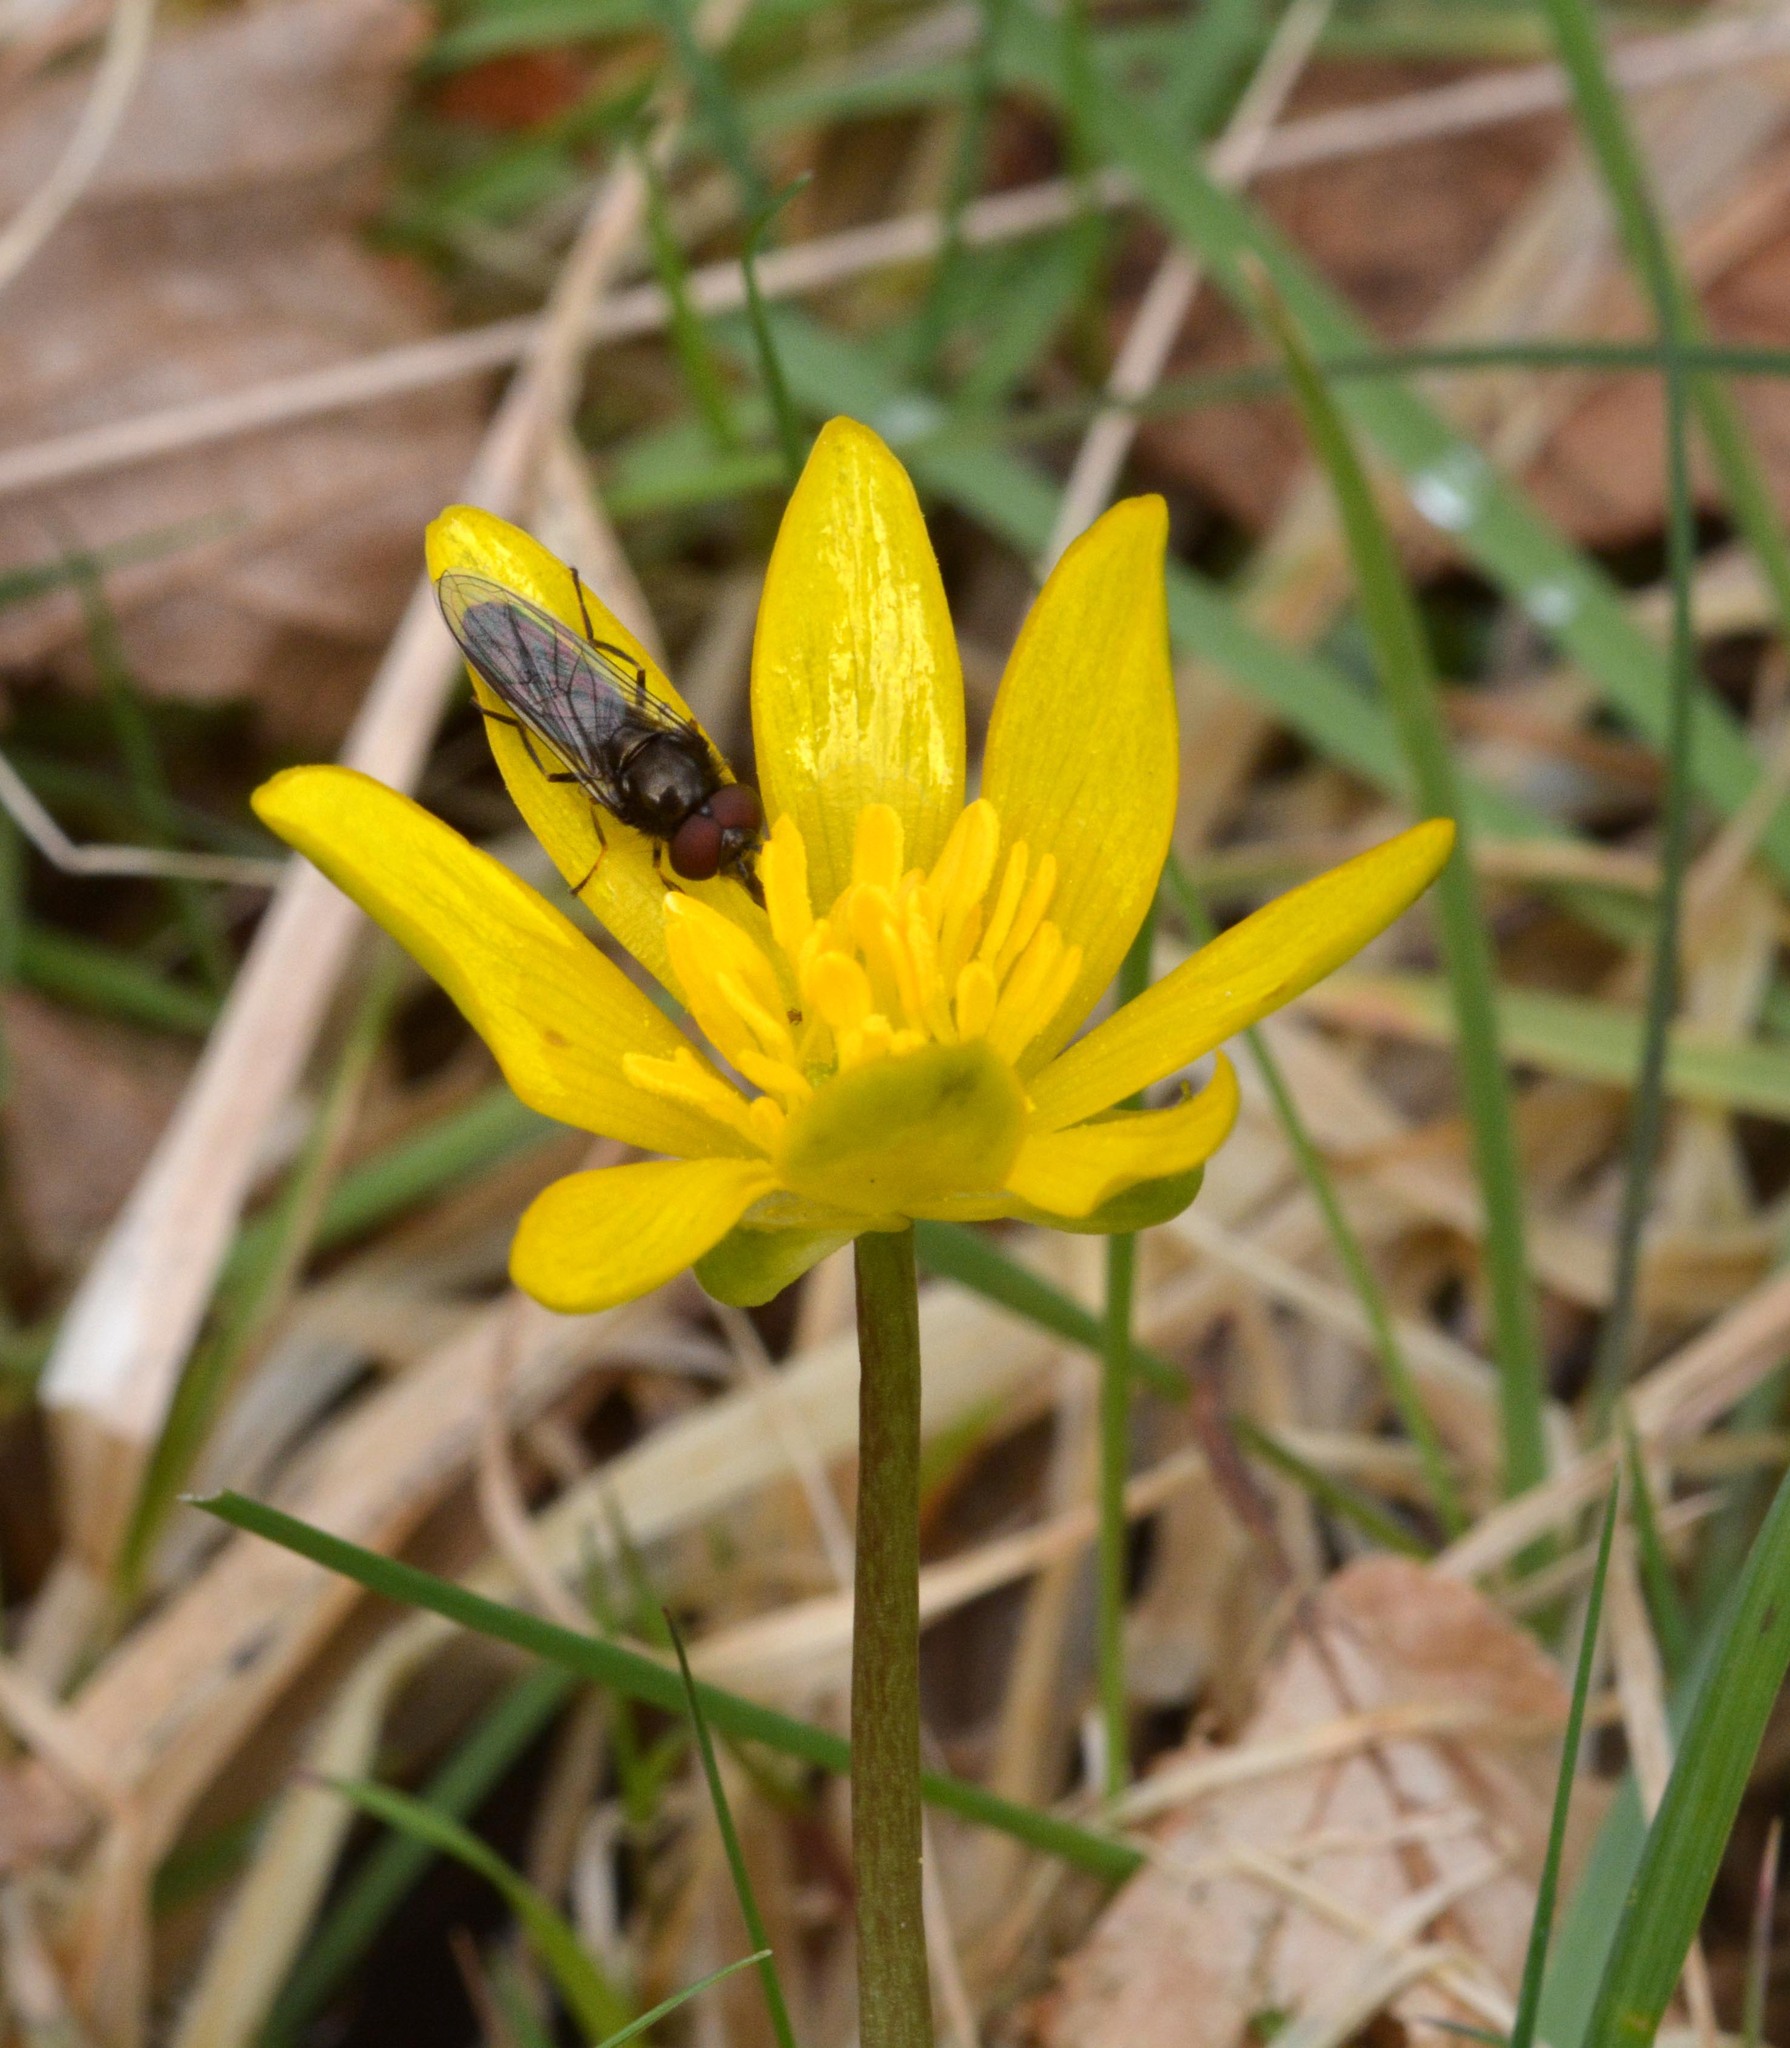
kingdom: Animalia
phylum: Arthropoda
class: Insecta
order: Diptera
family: Syrphidae
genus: Platycheirus
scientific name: Platycheirus albimanus
